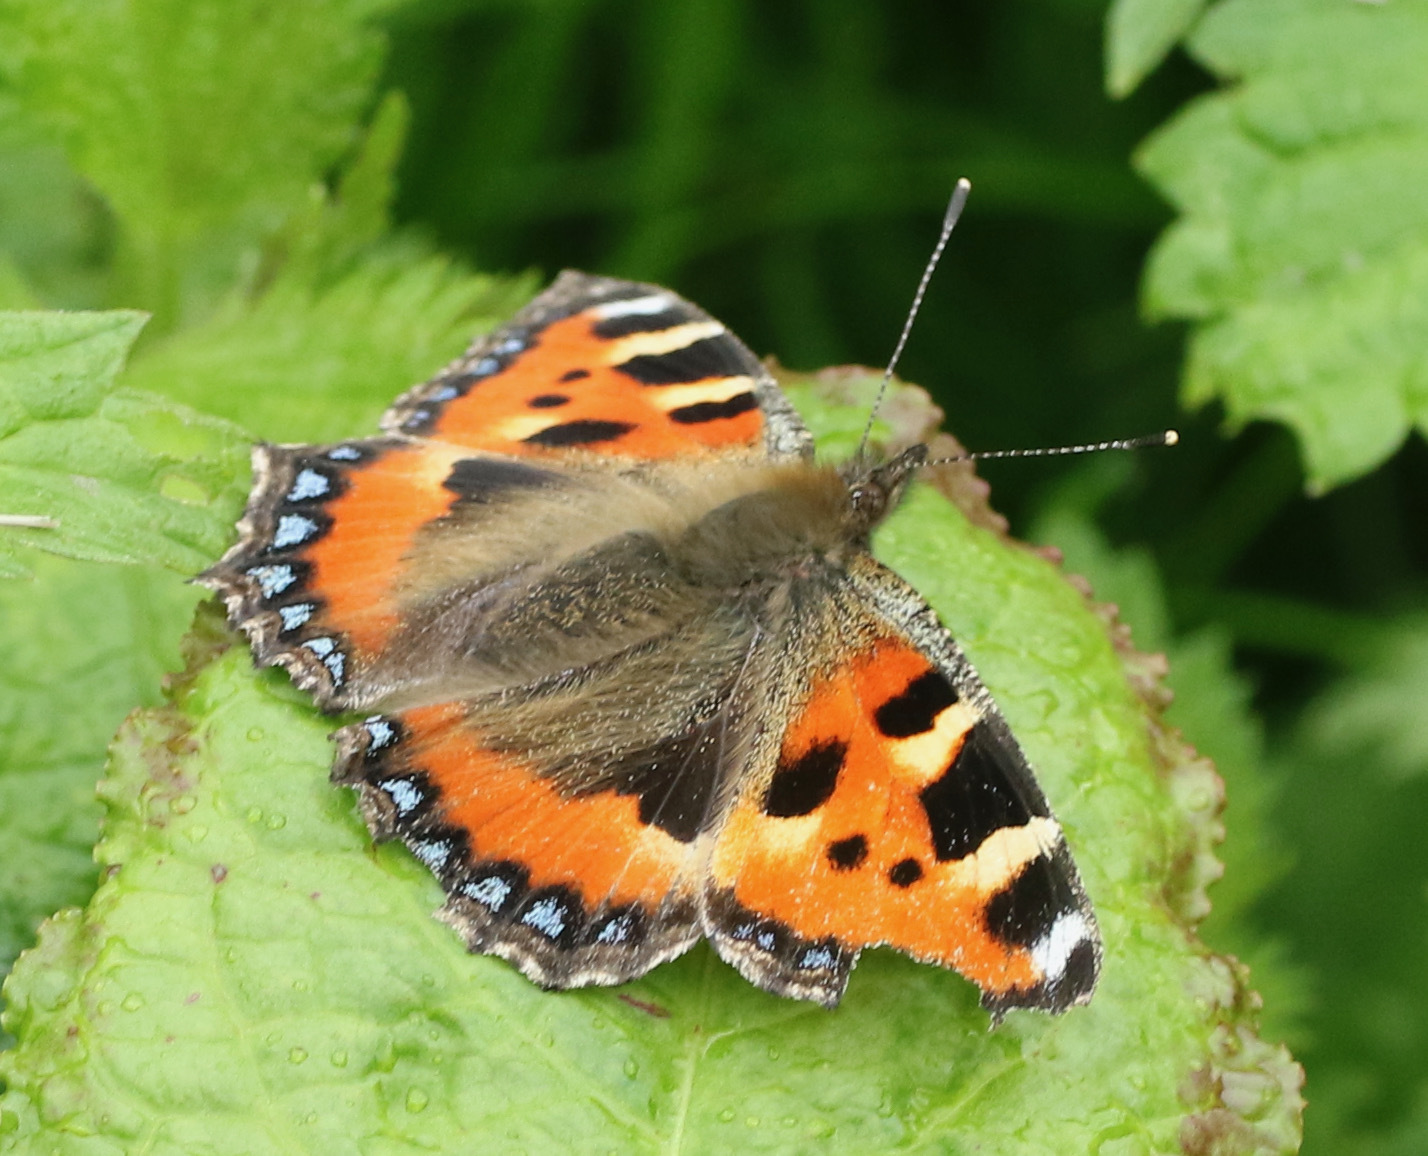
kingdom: Animalia
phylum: Arthropoda
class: Insecta
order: Lepidoptera
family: Nymphalidae
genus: Aglais
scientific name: Aglais urticae
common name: Small tortoiseshell
